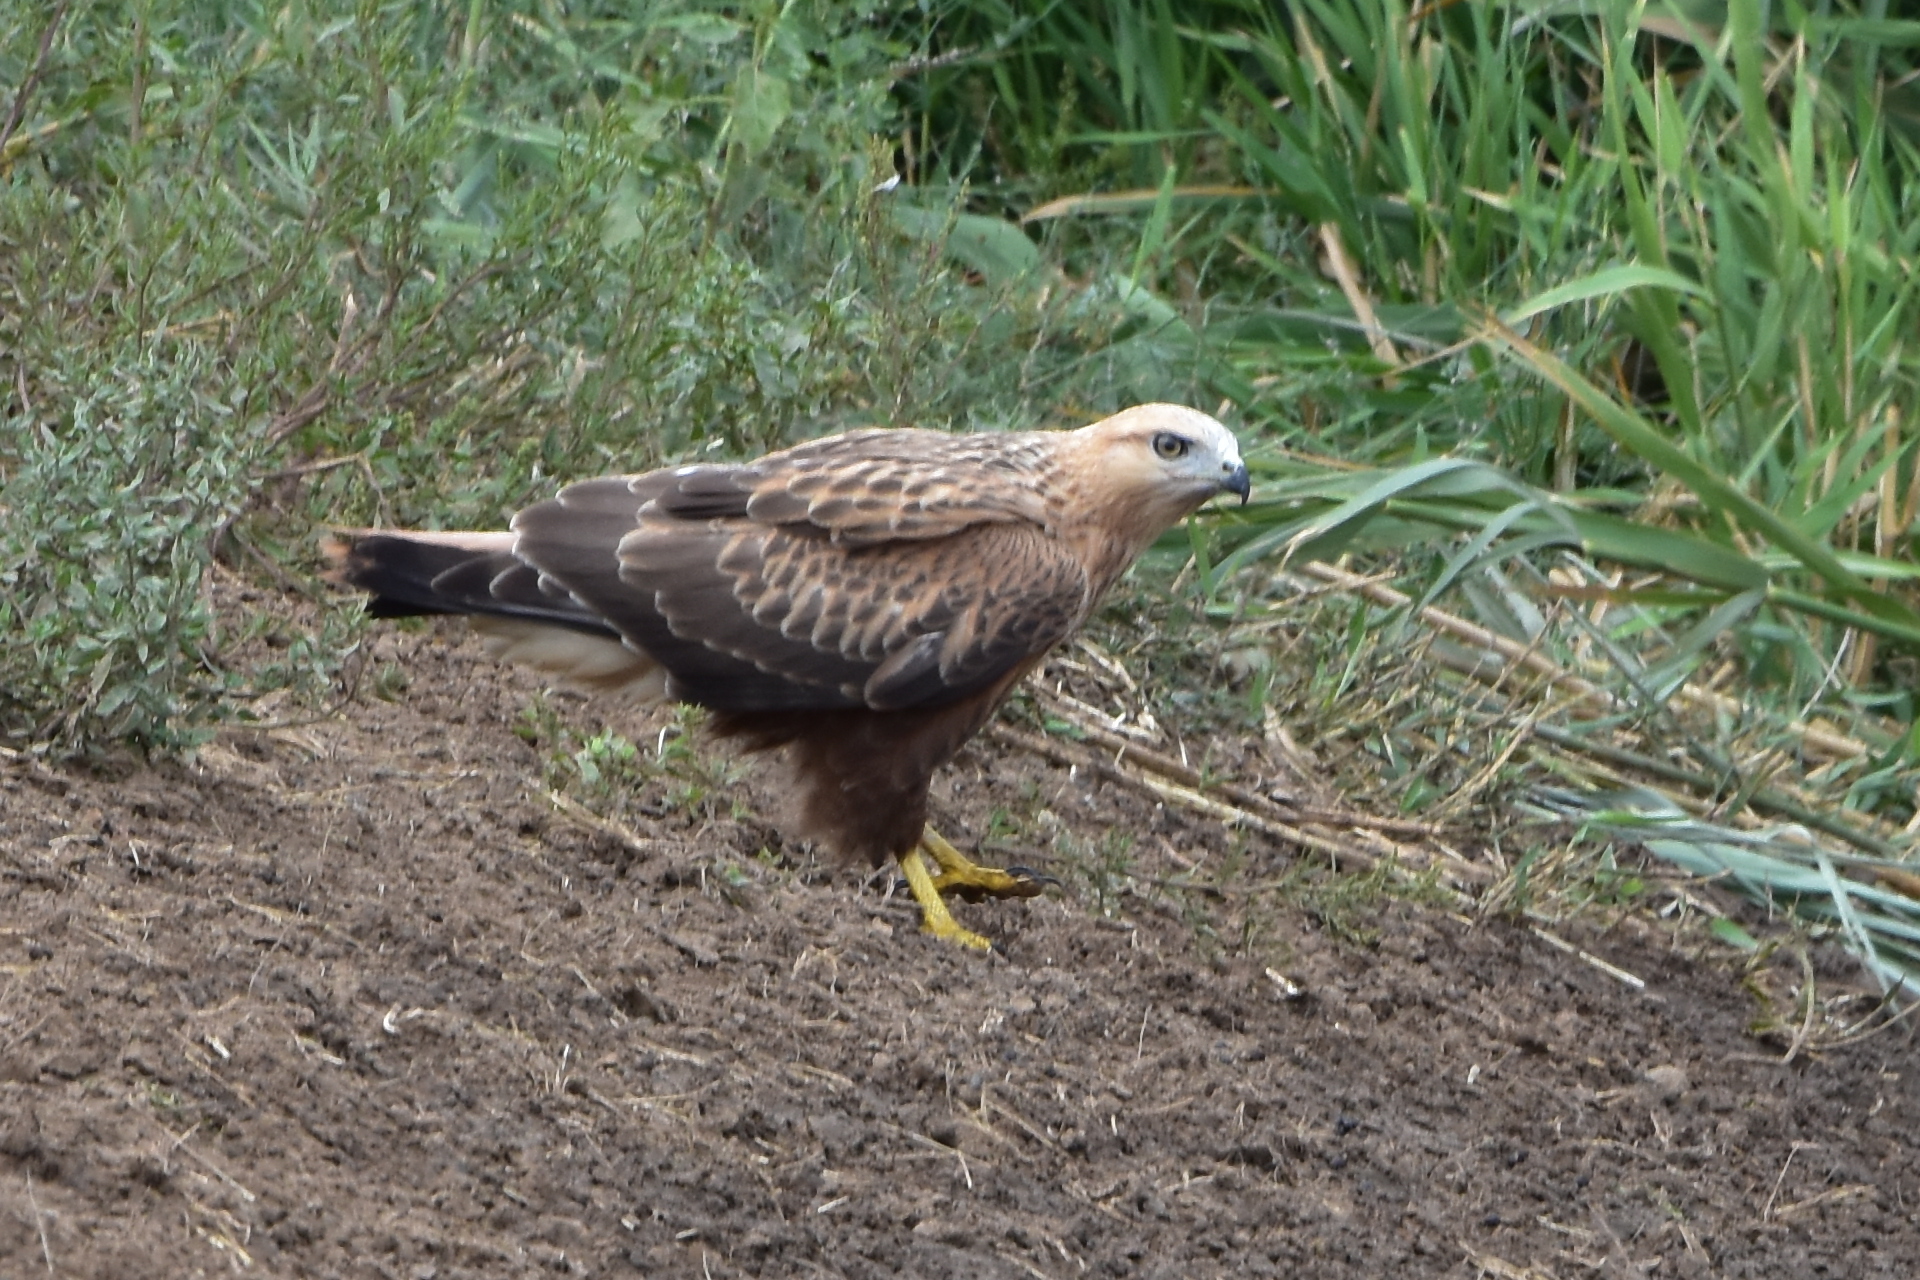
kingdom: Animalia
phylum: Chordata
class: Aves
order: Accipitriformes
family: Accipitridae
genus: Buteo
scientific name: Buteo rufinus
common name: Long-legged buzzard
